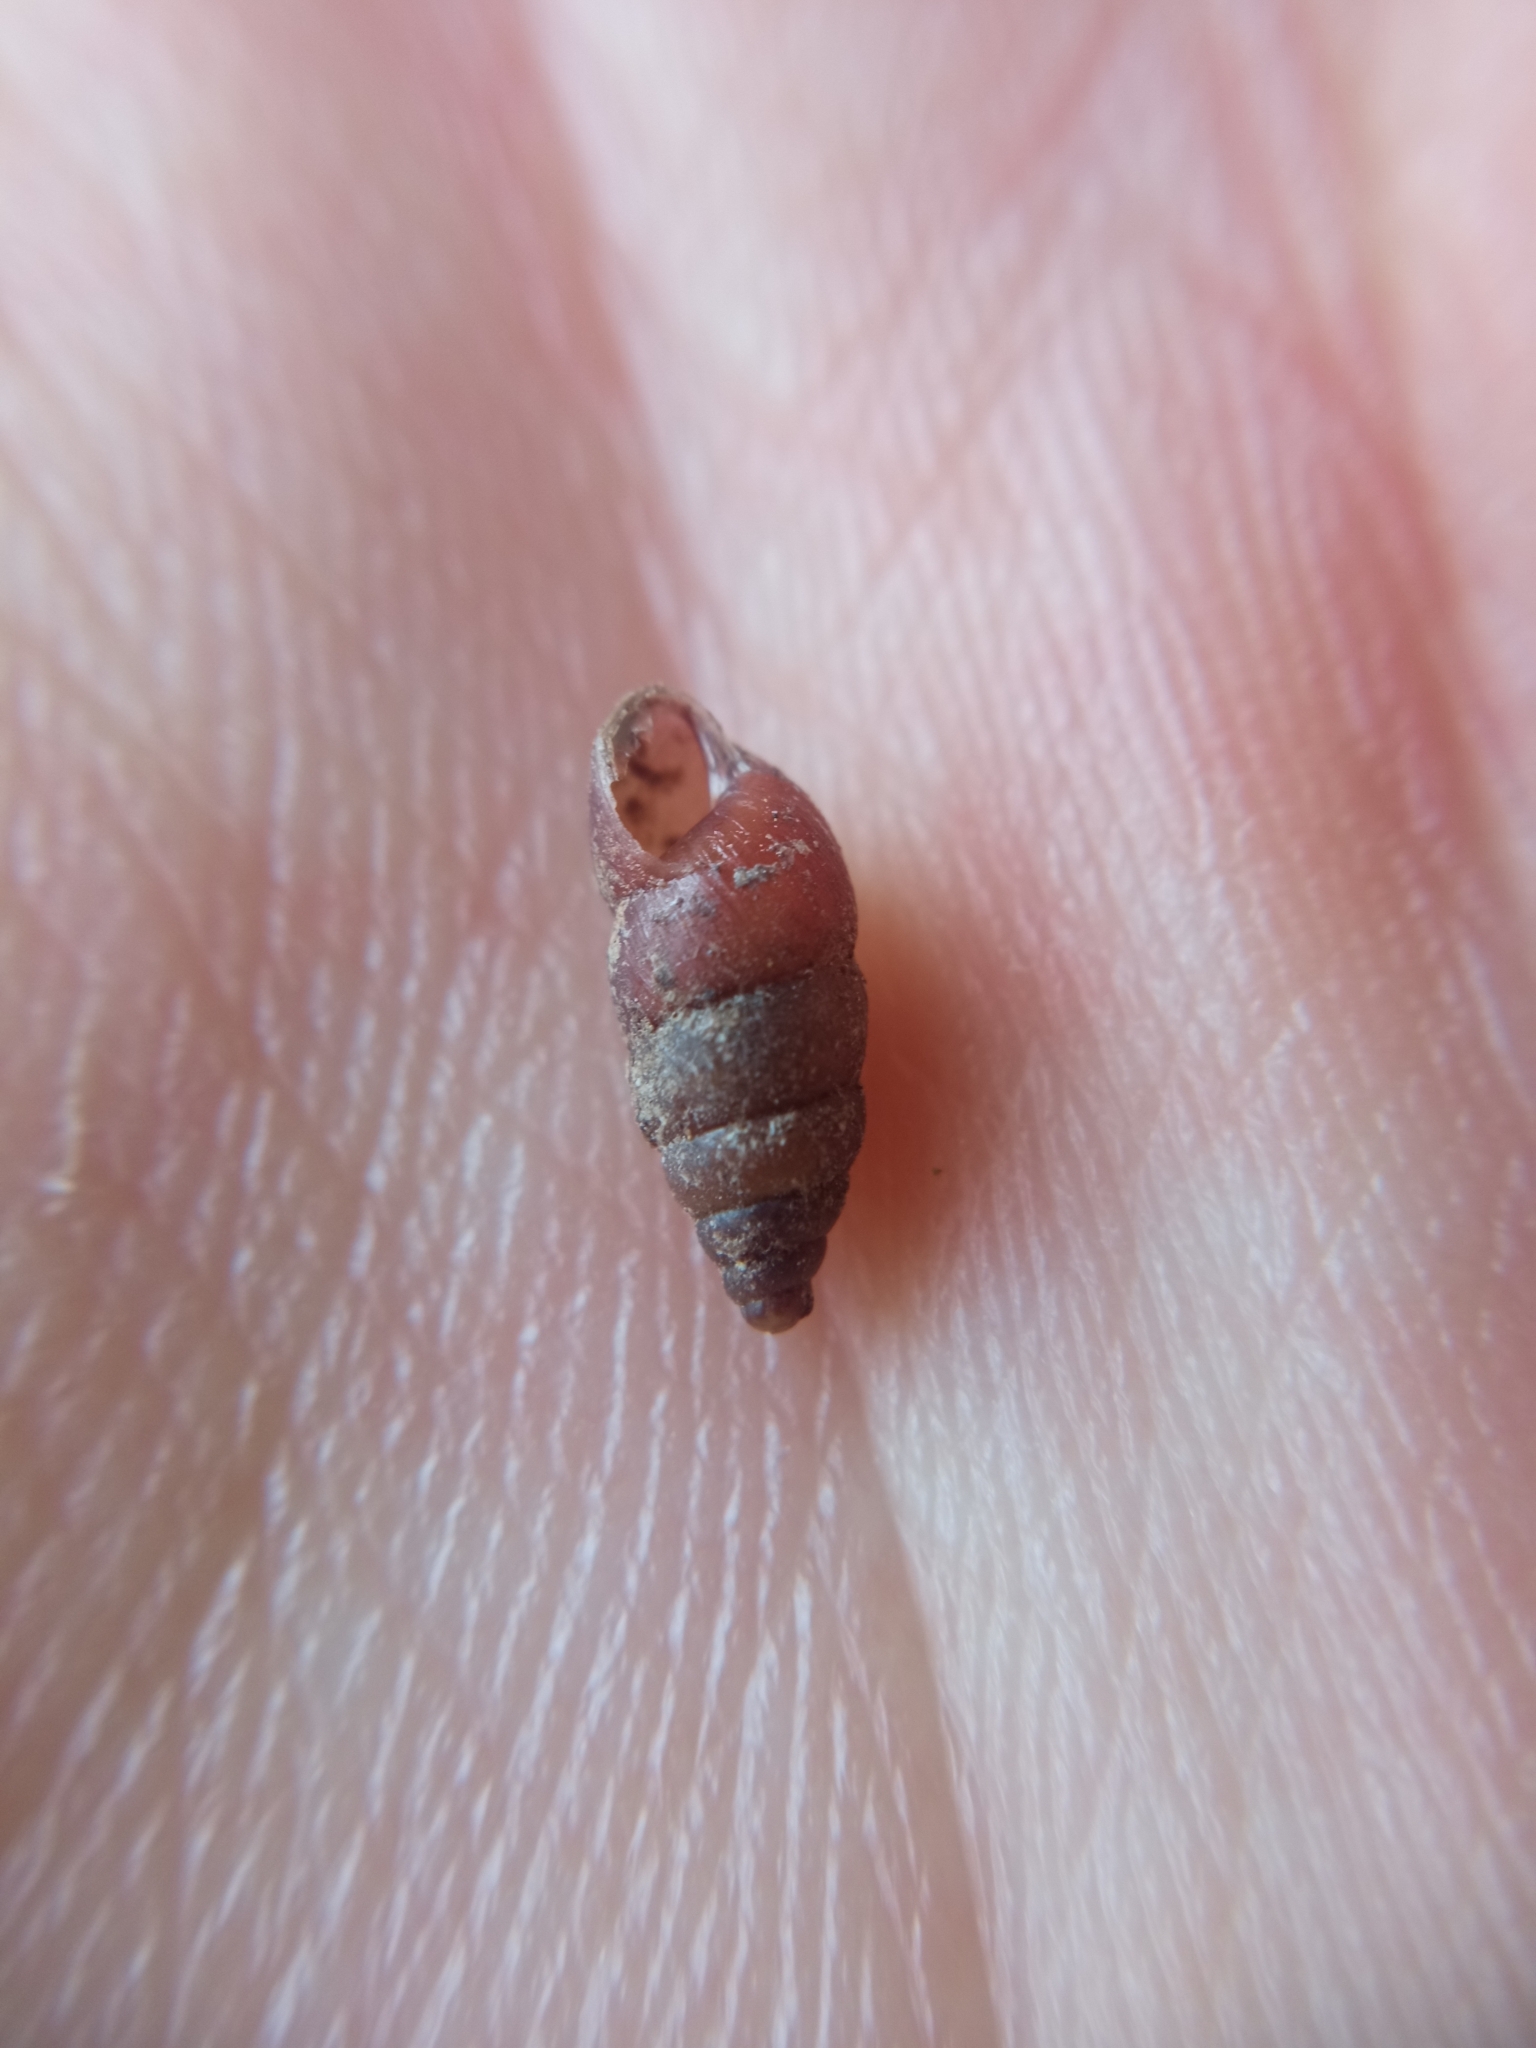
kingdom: Animalia
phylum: Mollusca
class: Gastropoda
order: Stylommatophora
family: Enidae
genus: Merdigera
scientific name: Merdigera obscura
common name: Lesser bulin
